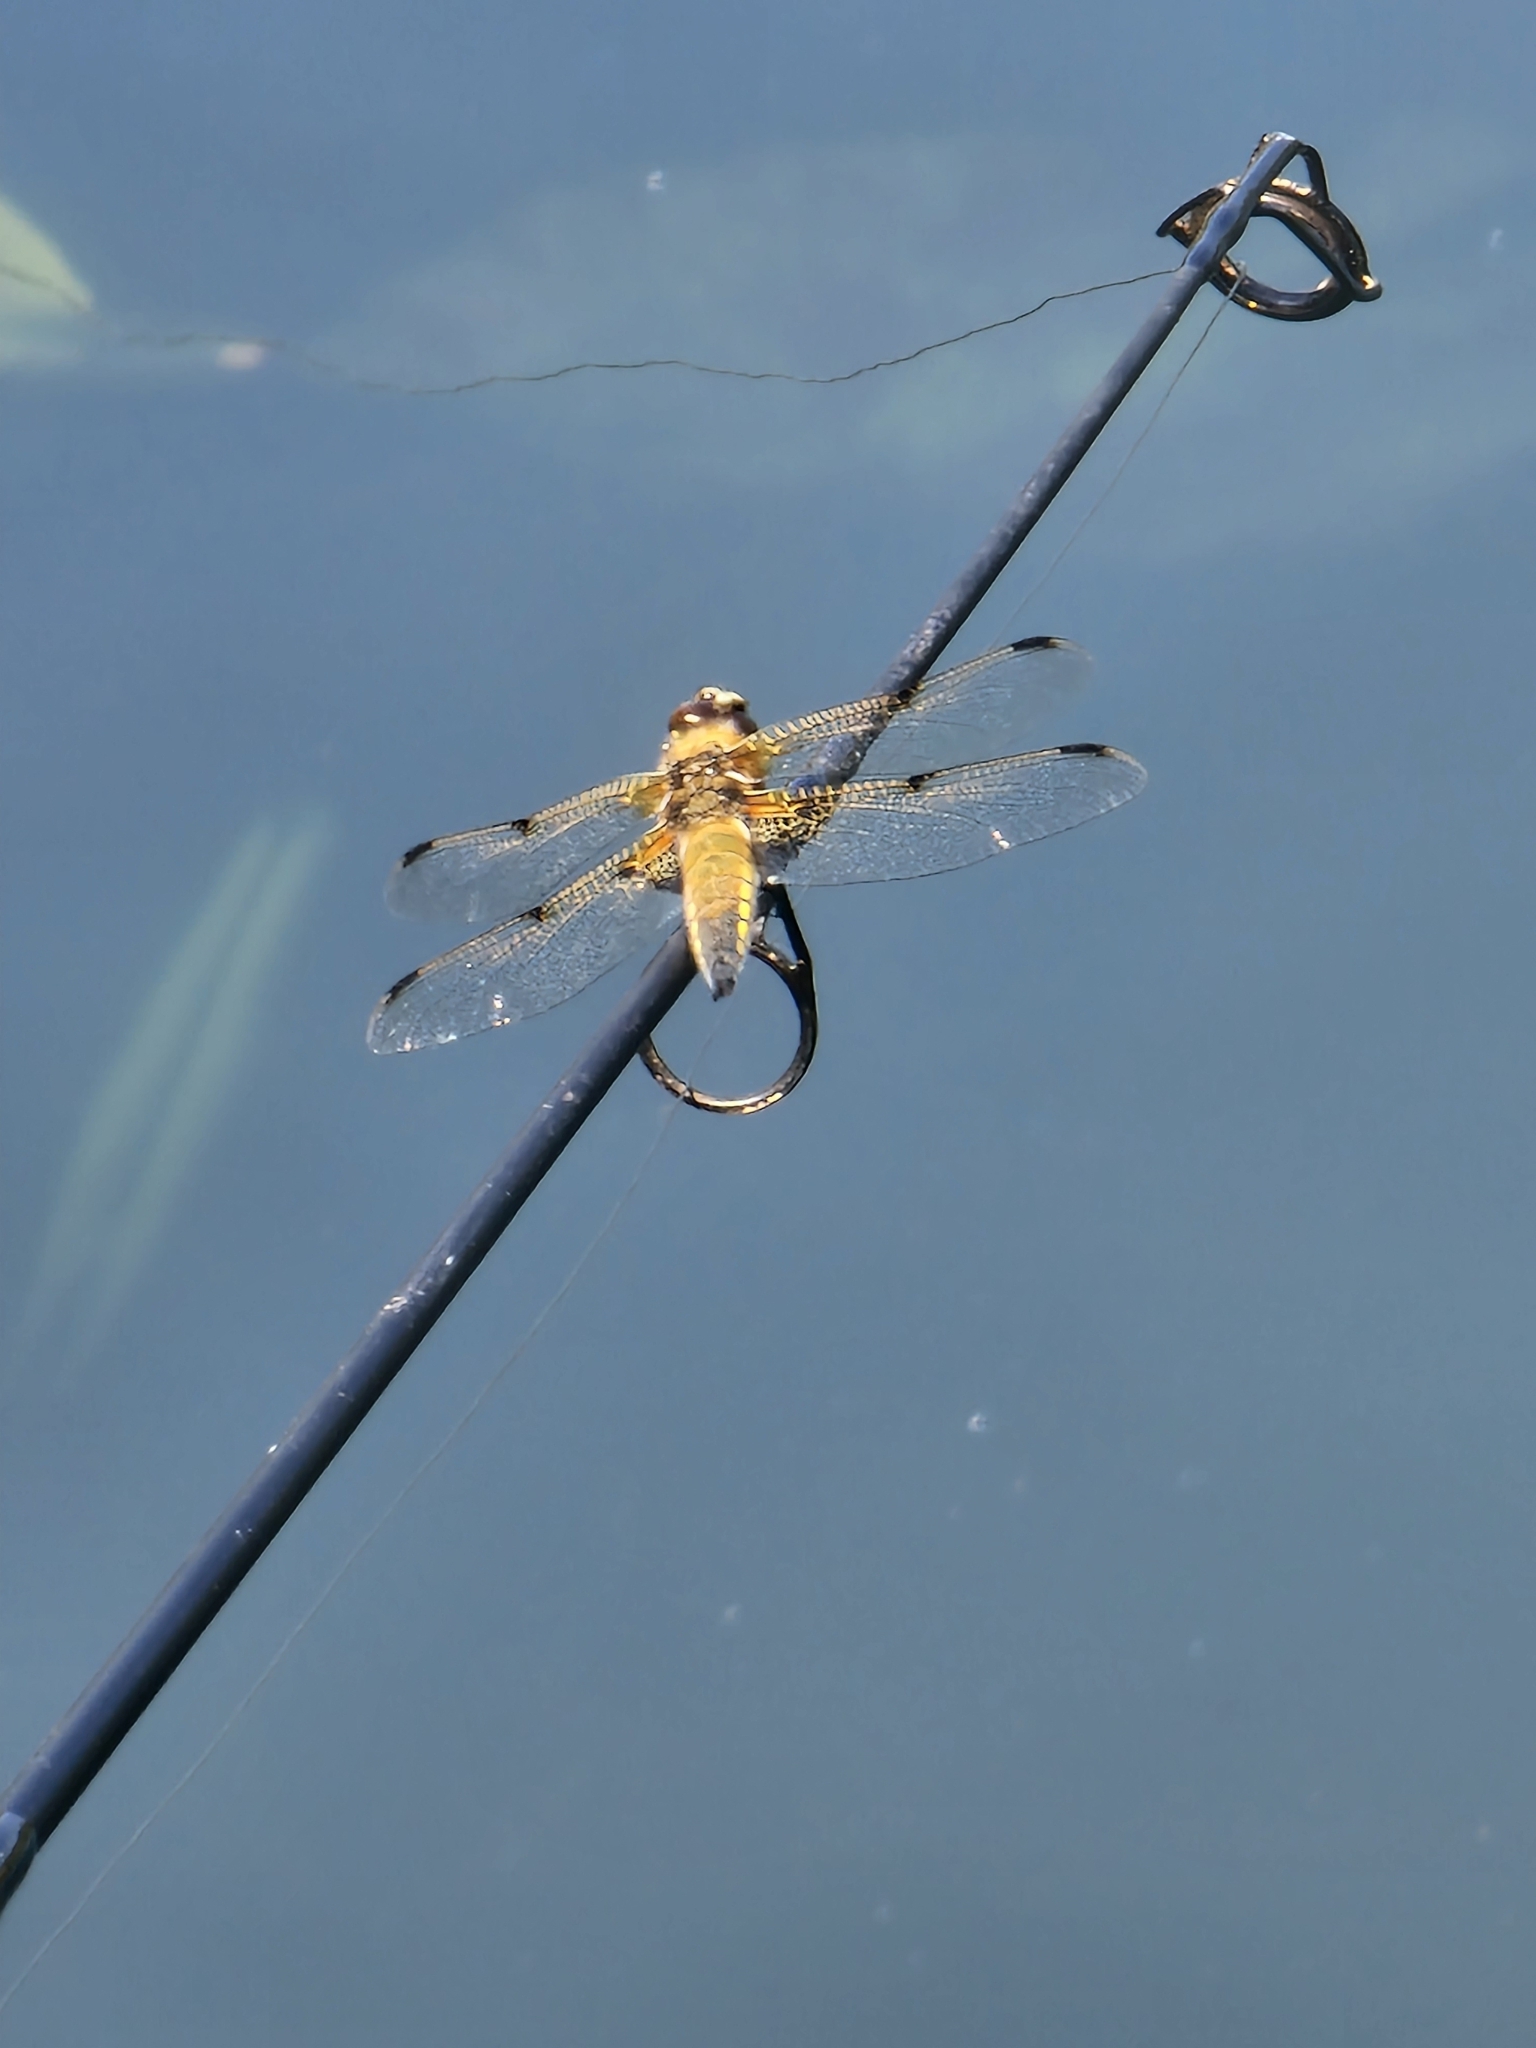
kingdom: Animalia
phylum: Arthropoda
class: Insecta
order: Odonata
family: Libellulidae
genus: Libellula
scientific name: Libellula quadrimaculata
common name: Four-spotted chaser
